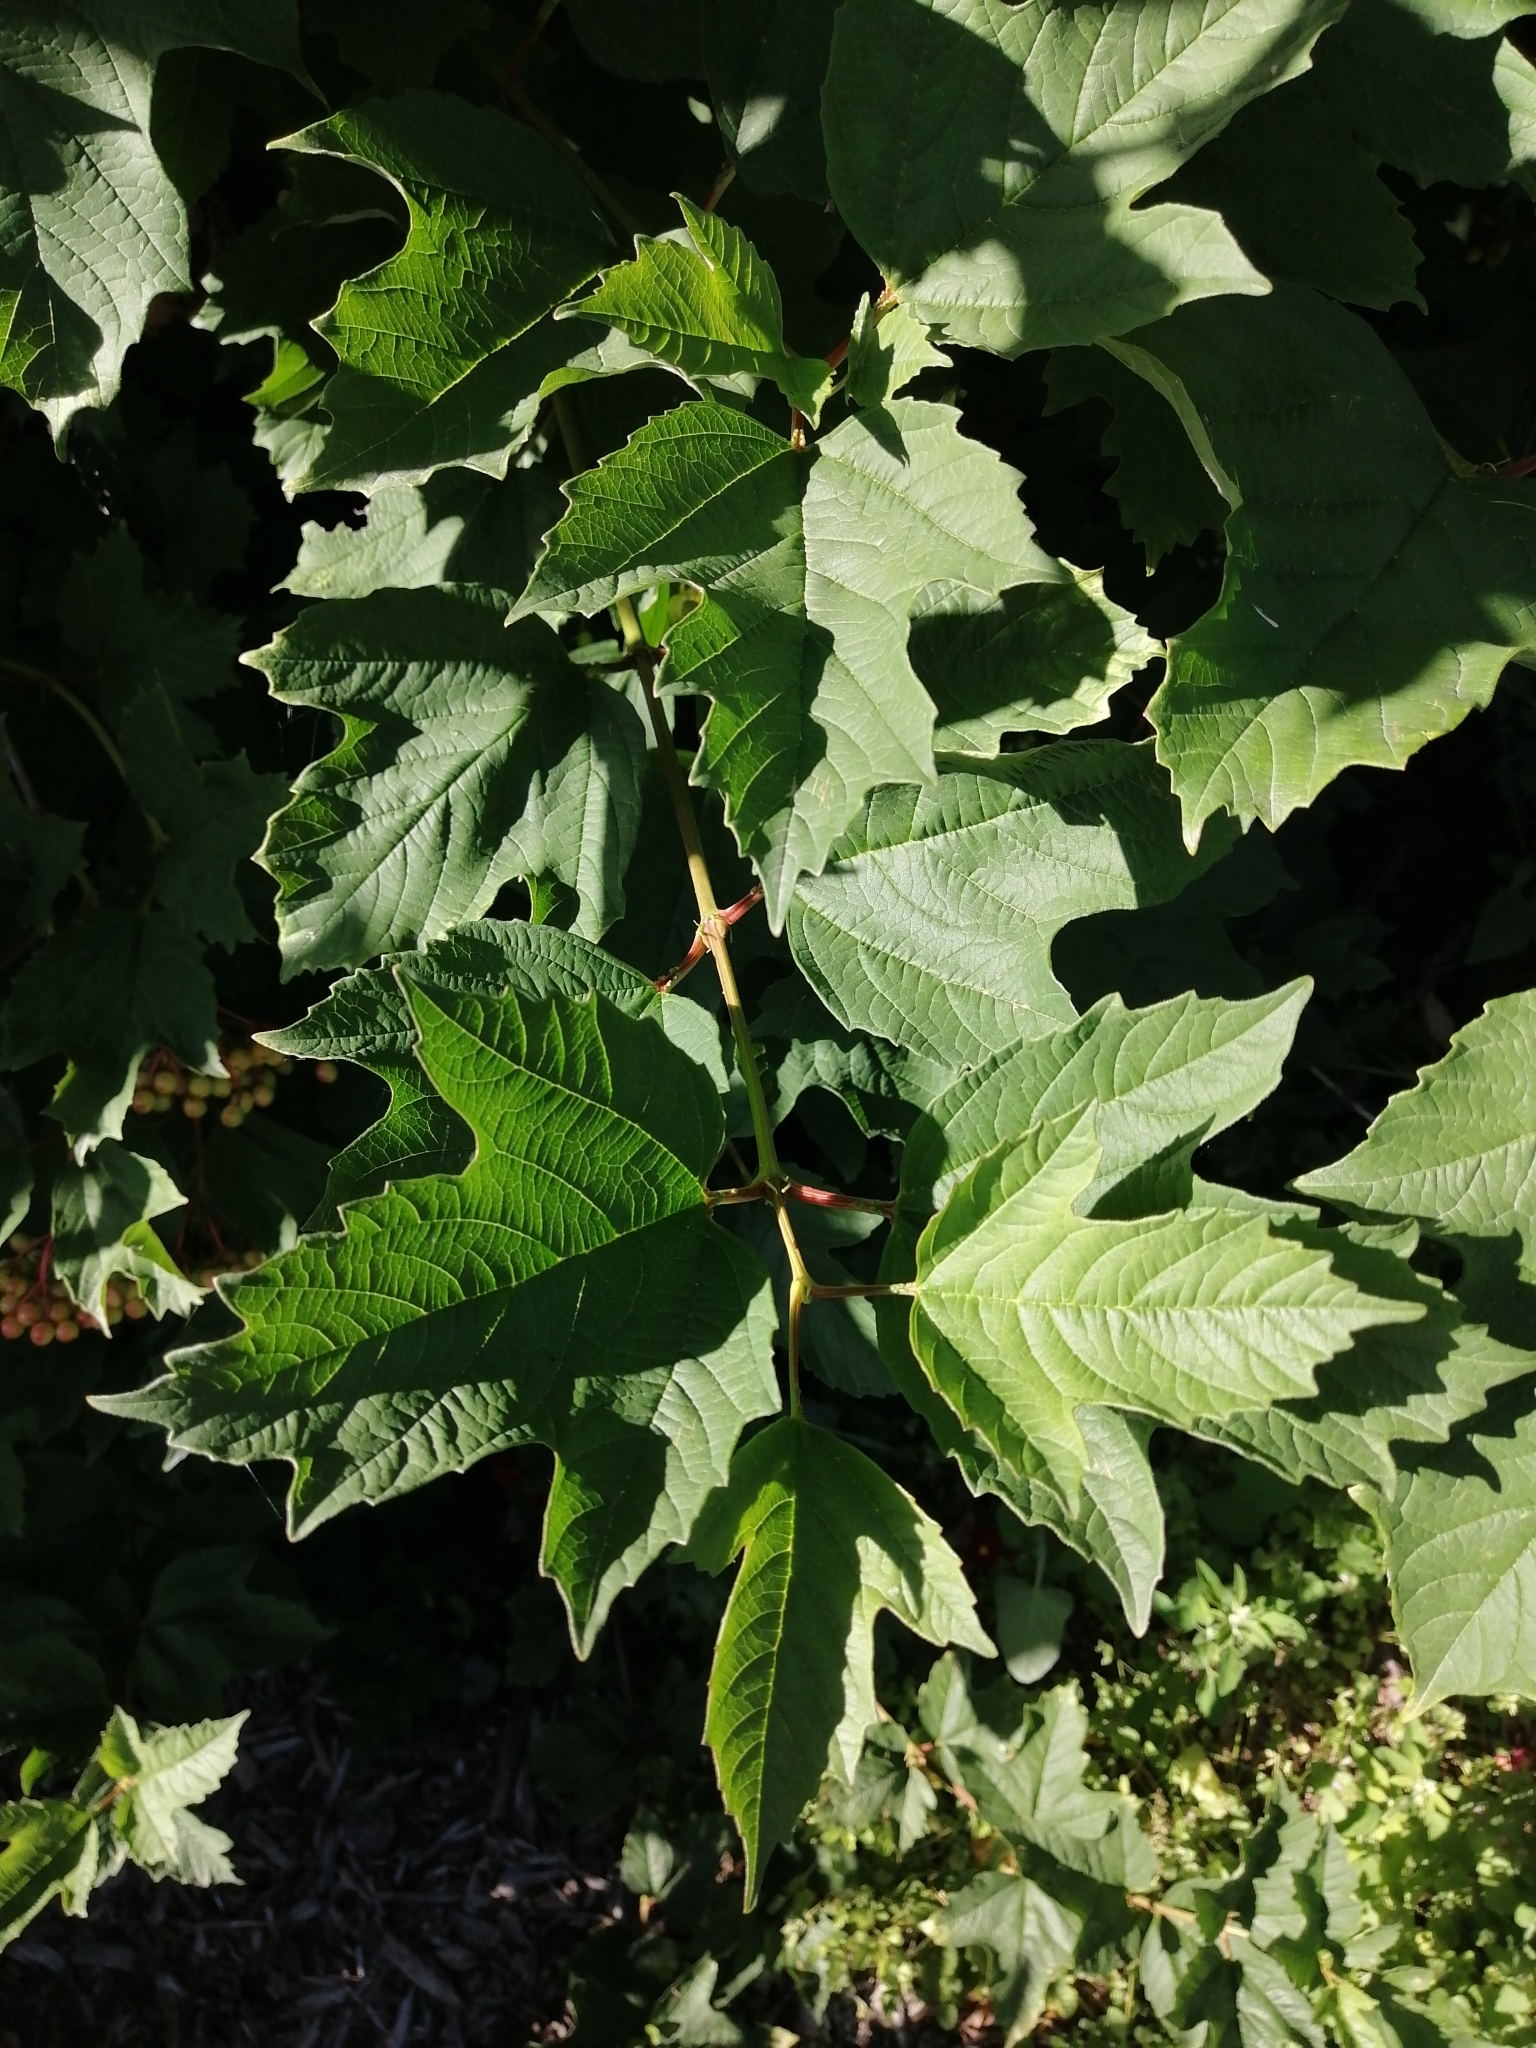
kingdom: Plantae
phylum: Tracheophyta
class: Magnoliopsida
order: Dipsacales
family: Viburnaceae
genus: Viburnum
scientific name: Viburnum opulus
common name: Guelder-rose
